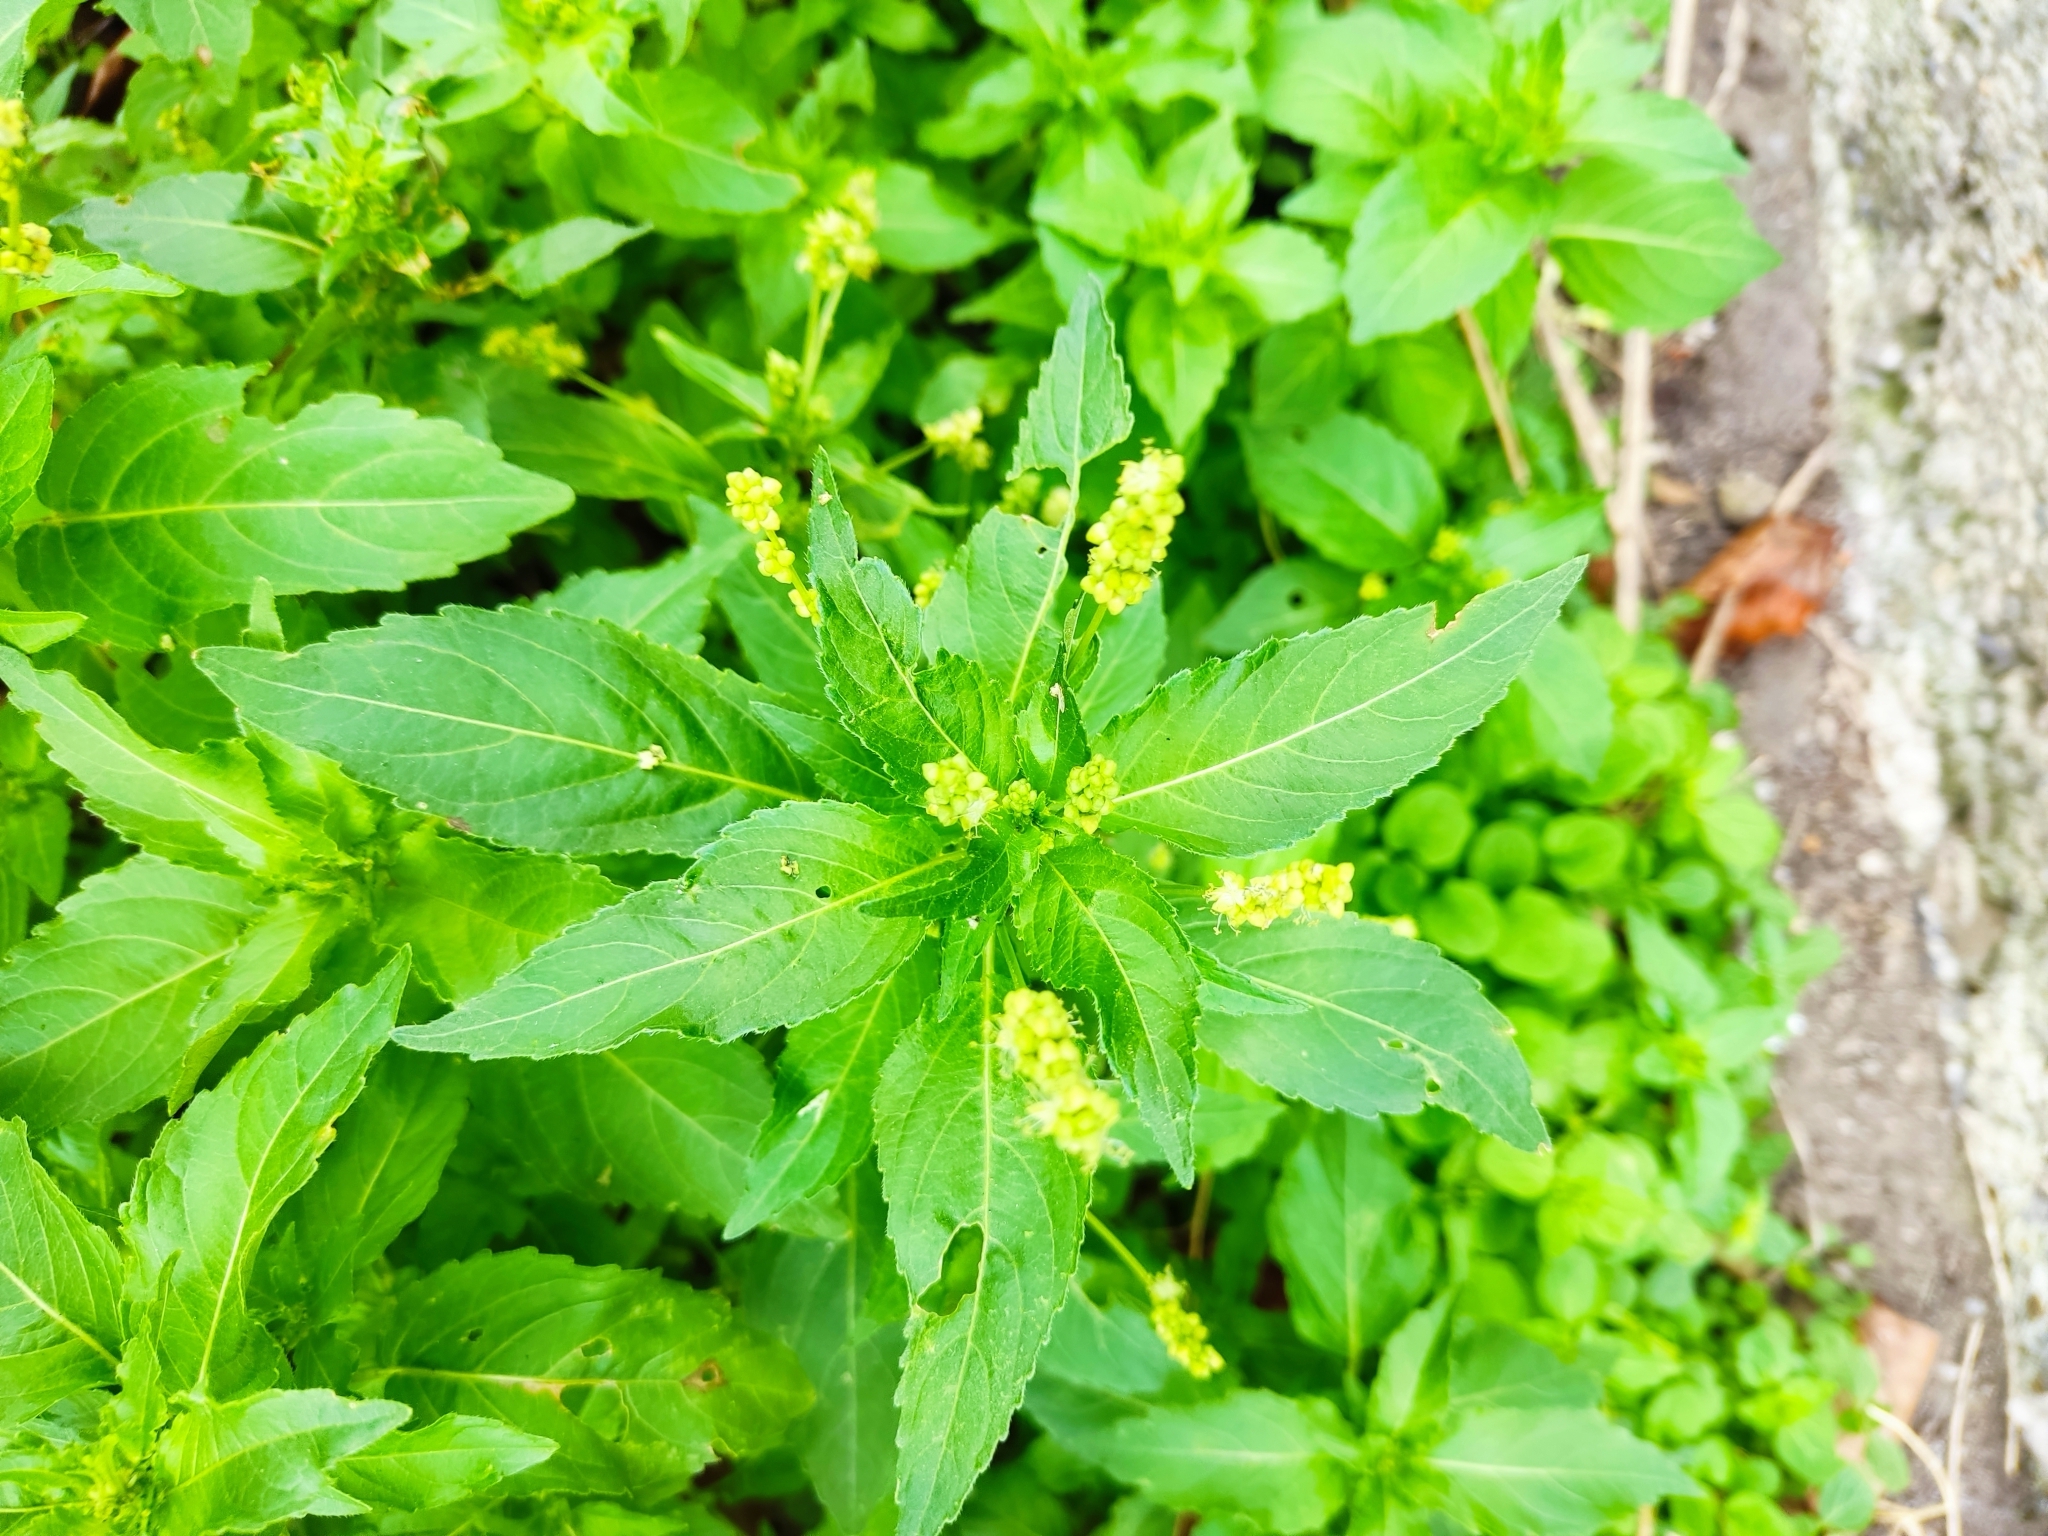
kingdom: Plantae
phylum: Tracheophyta
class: Magnoliopsida
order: Malpighiales
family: Euphorbiaceae
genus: Mercurialis
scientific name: Mercurialis perennis
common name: Dog mercury
